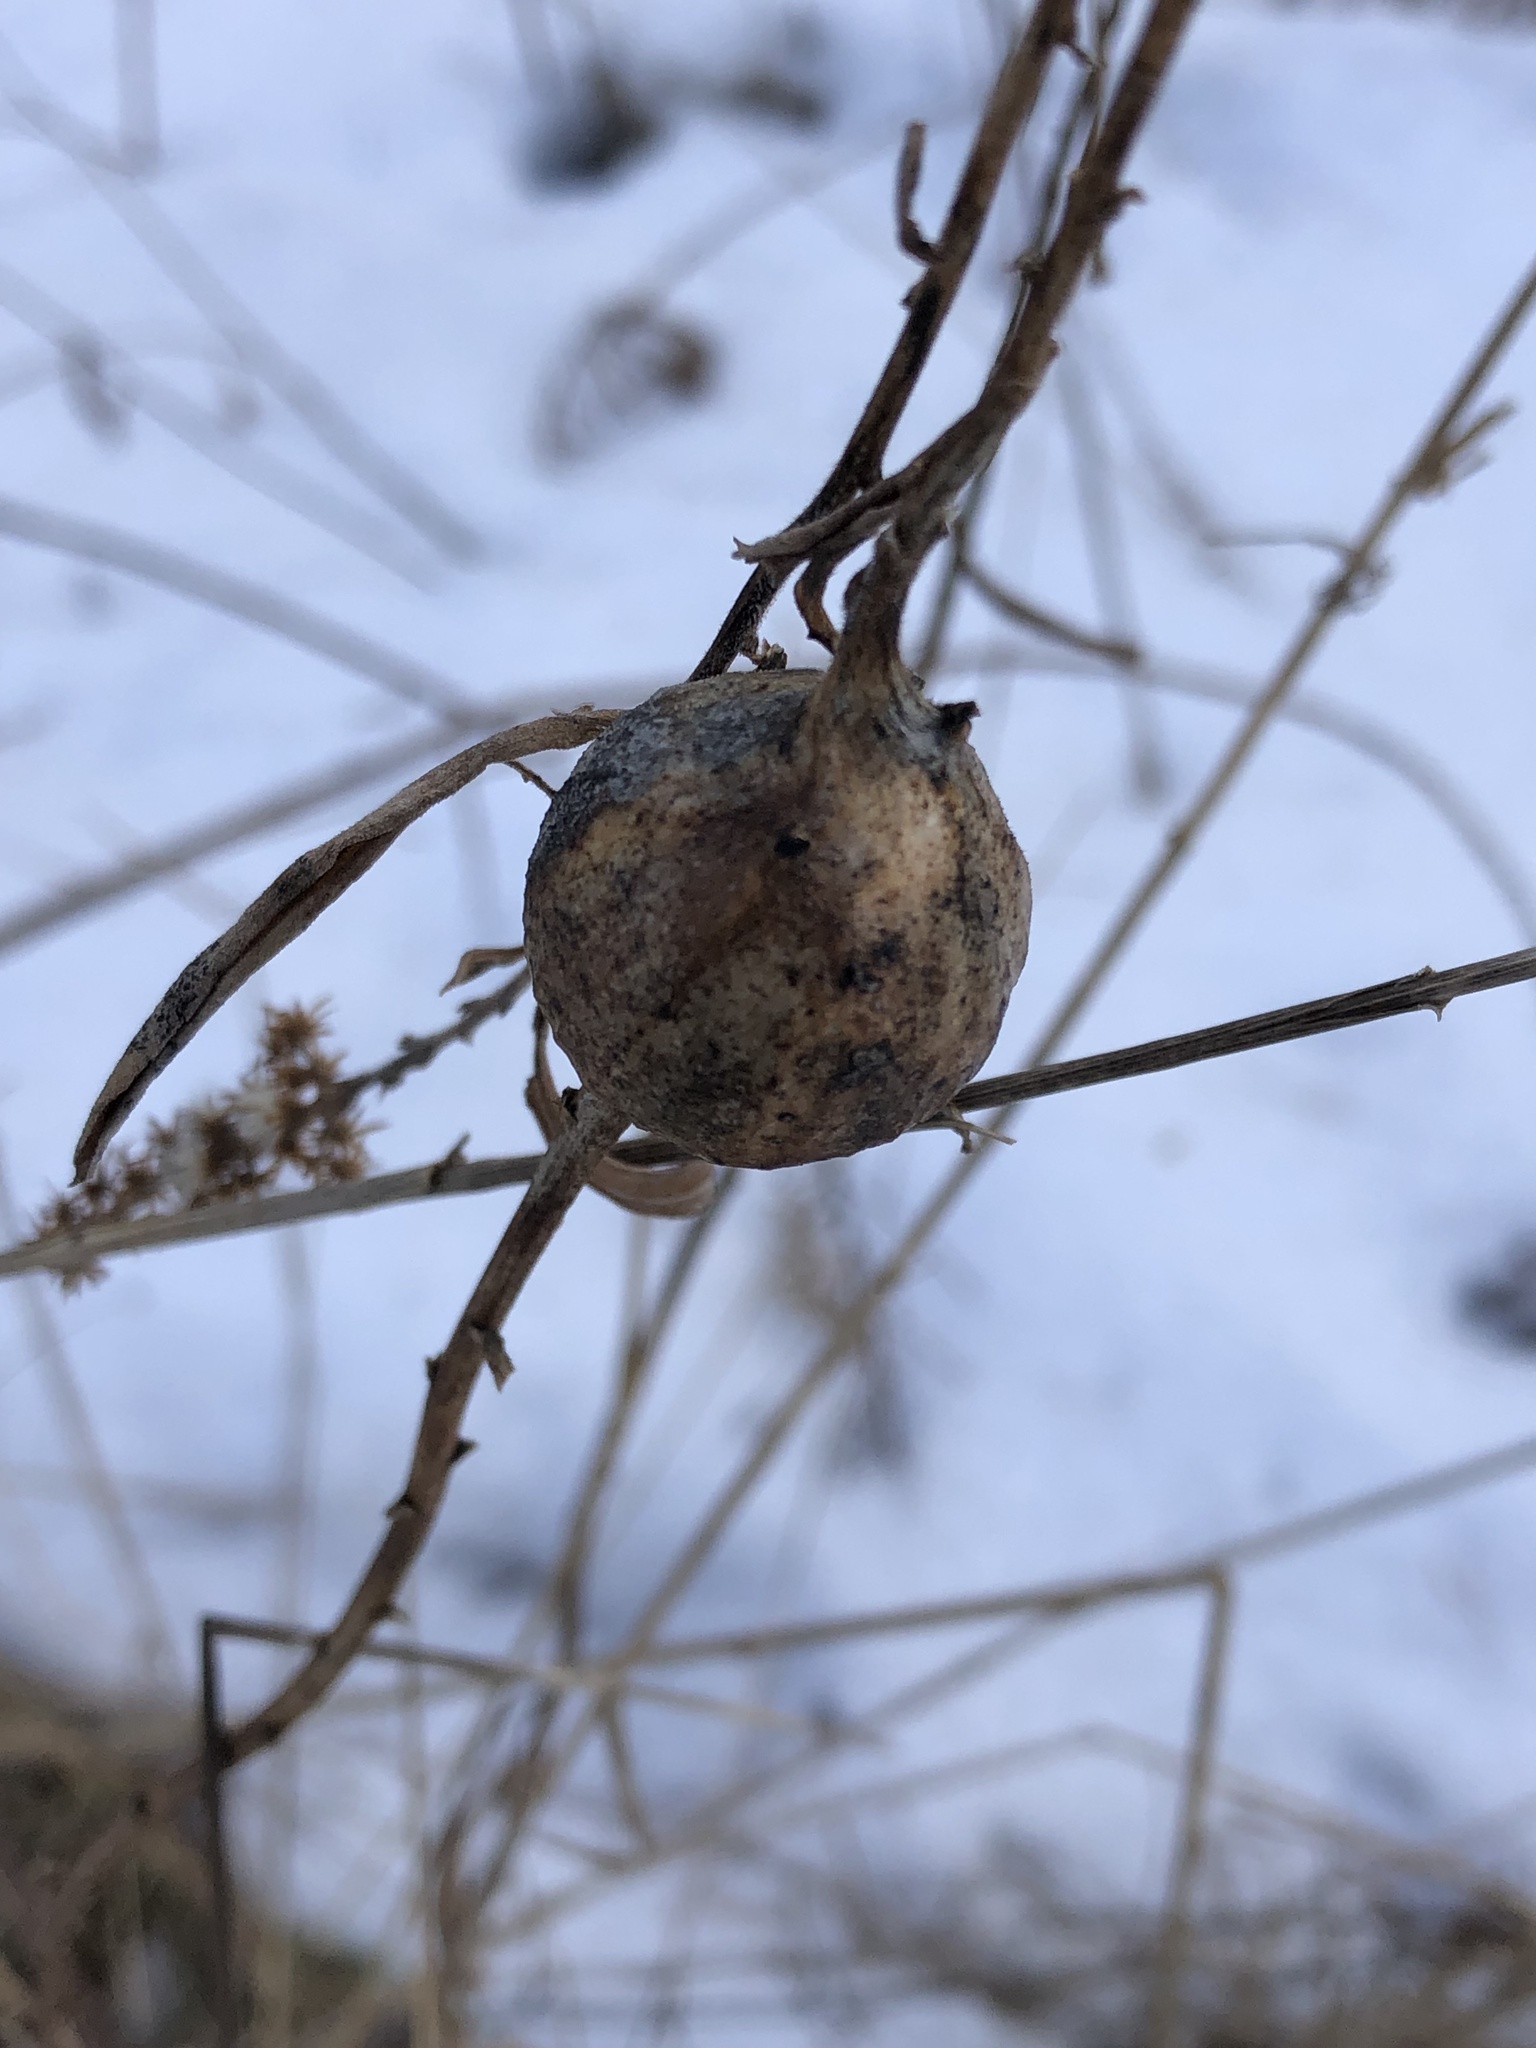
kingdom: Animalia
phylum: Arthropoda
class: Insecta
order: Diptera
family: Tephritidae
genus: Eurosta
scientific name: Eurosta solidaginis
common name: Goldenrod gall fly
